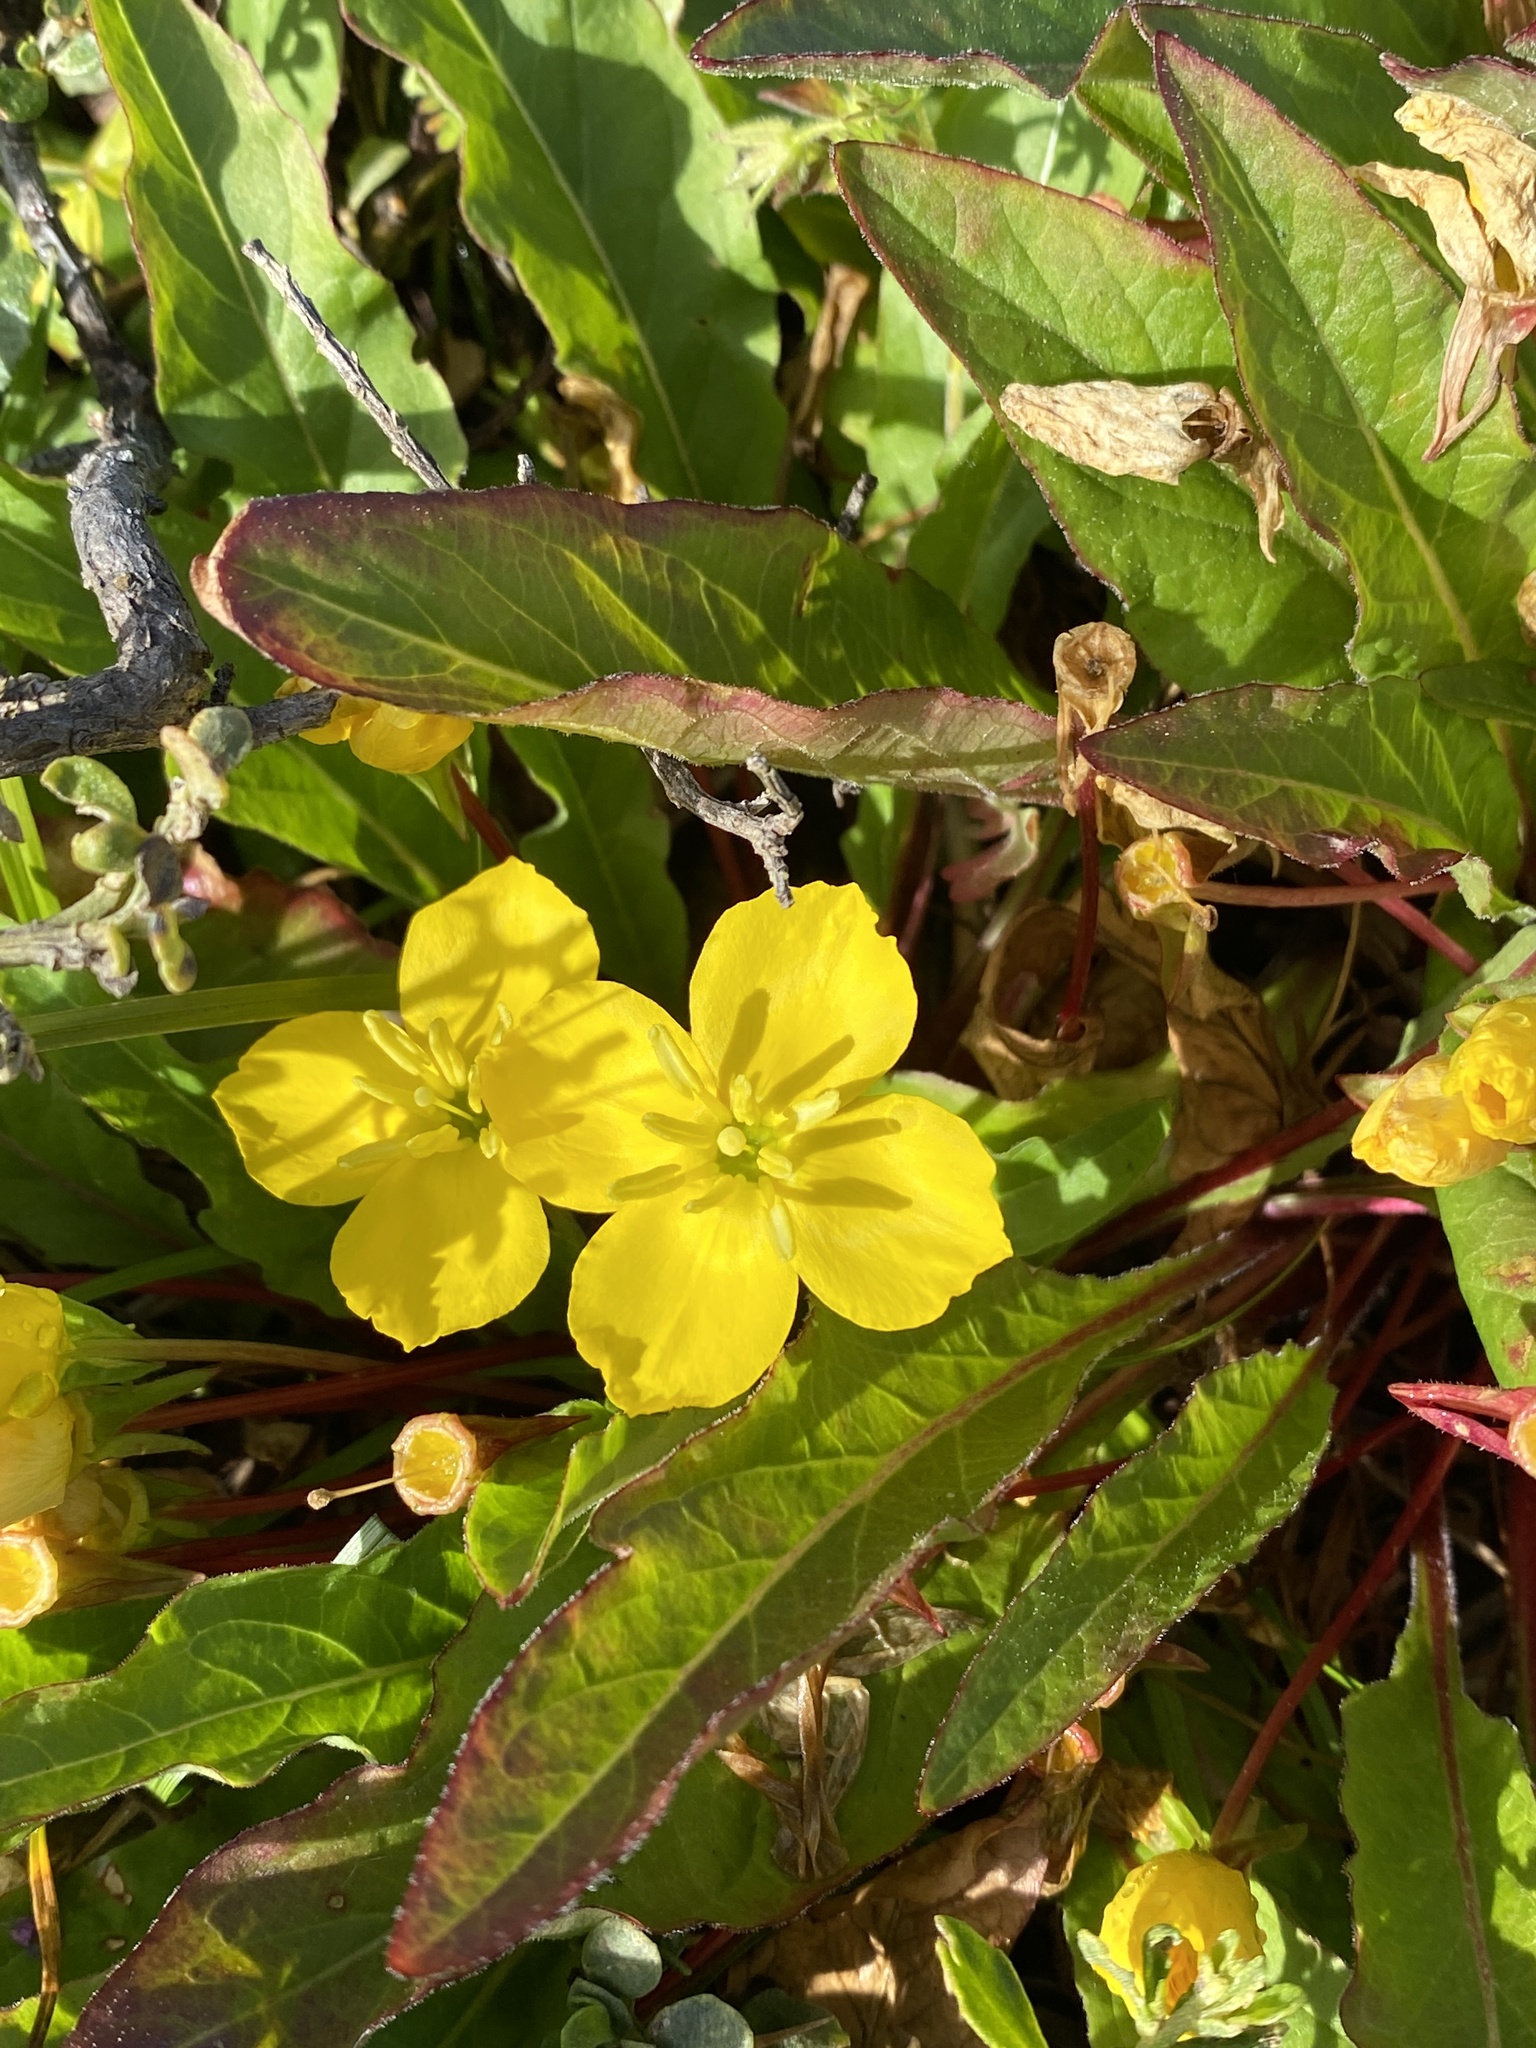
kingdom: Plantae
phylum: Tracheophyta
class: Magnoliopsida
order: Myrtales
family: Onagraceae
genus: Taraxia
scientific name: Taraxia ovata
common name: Goldeneggs
